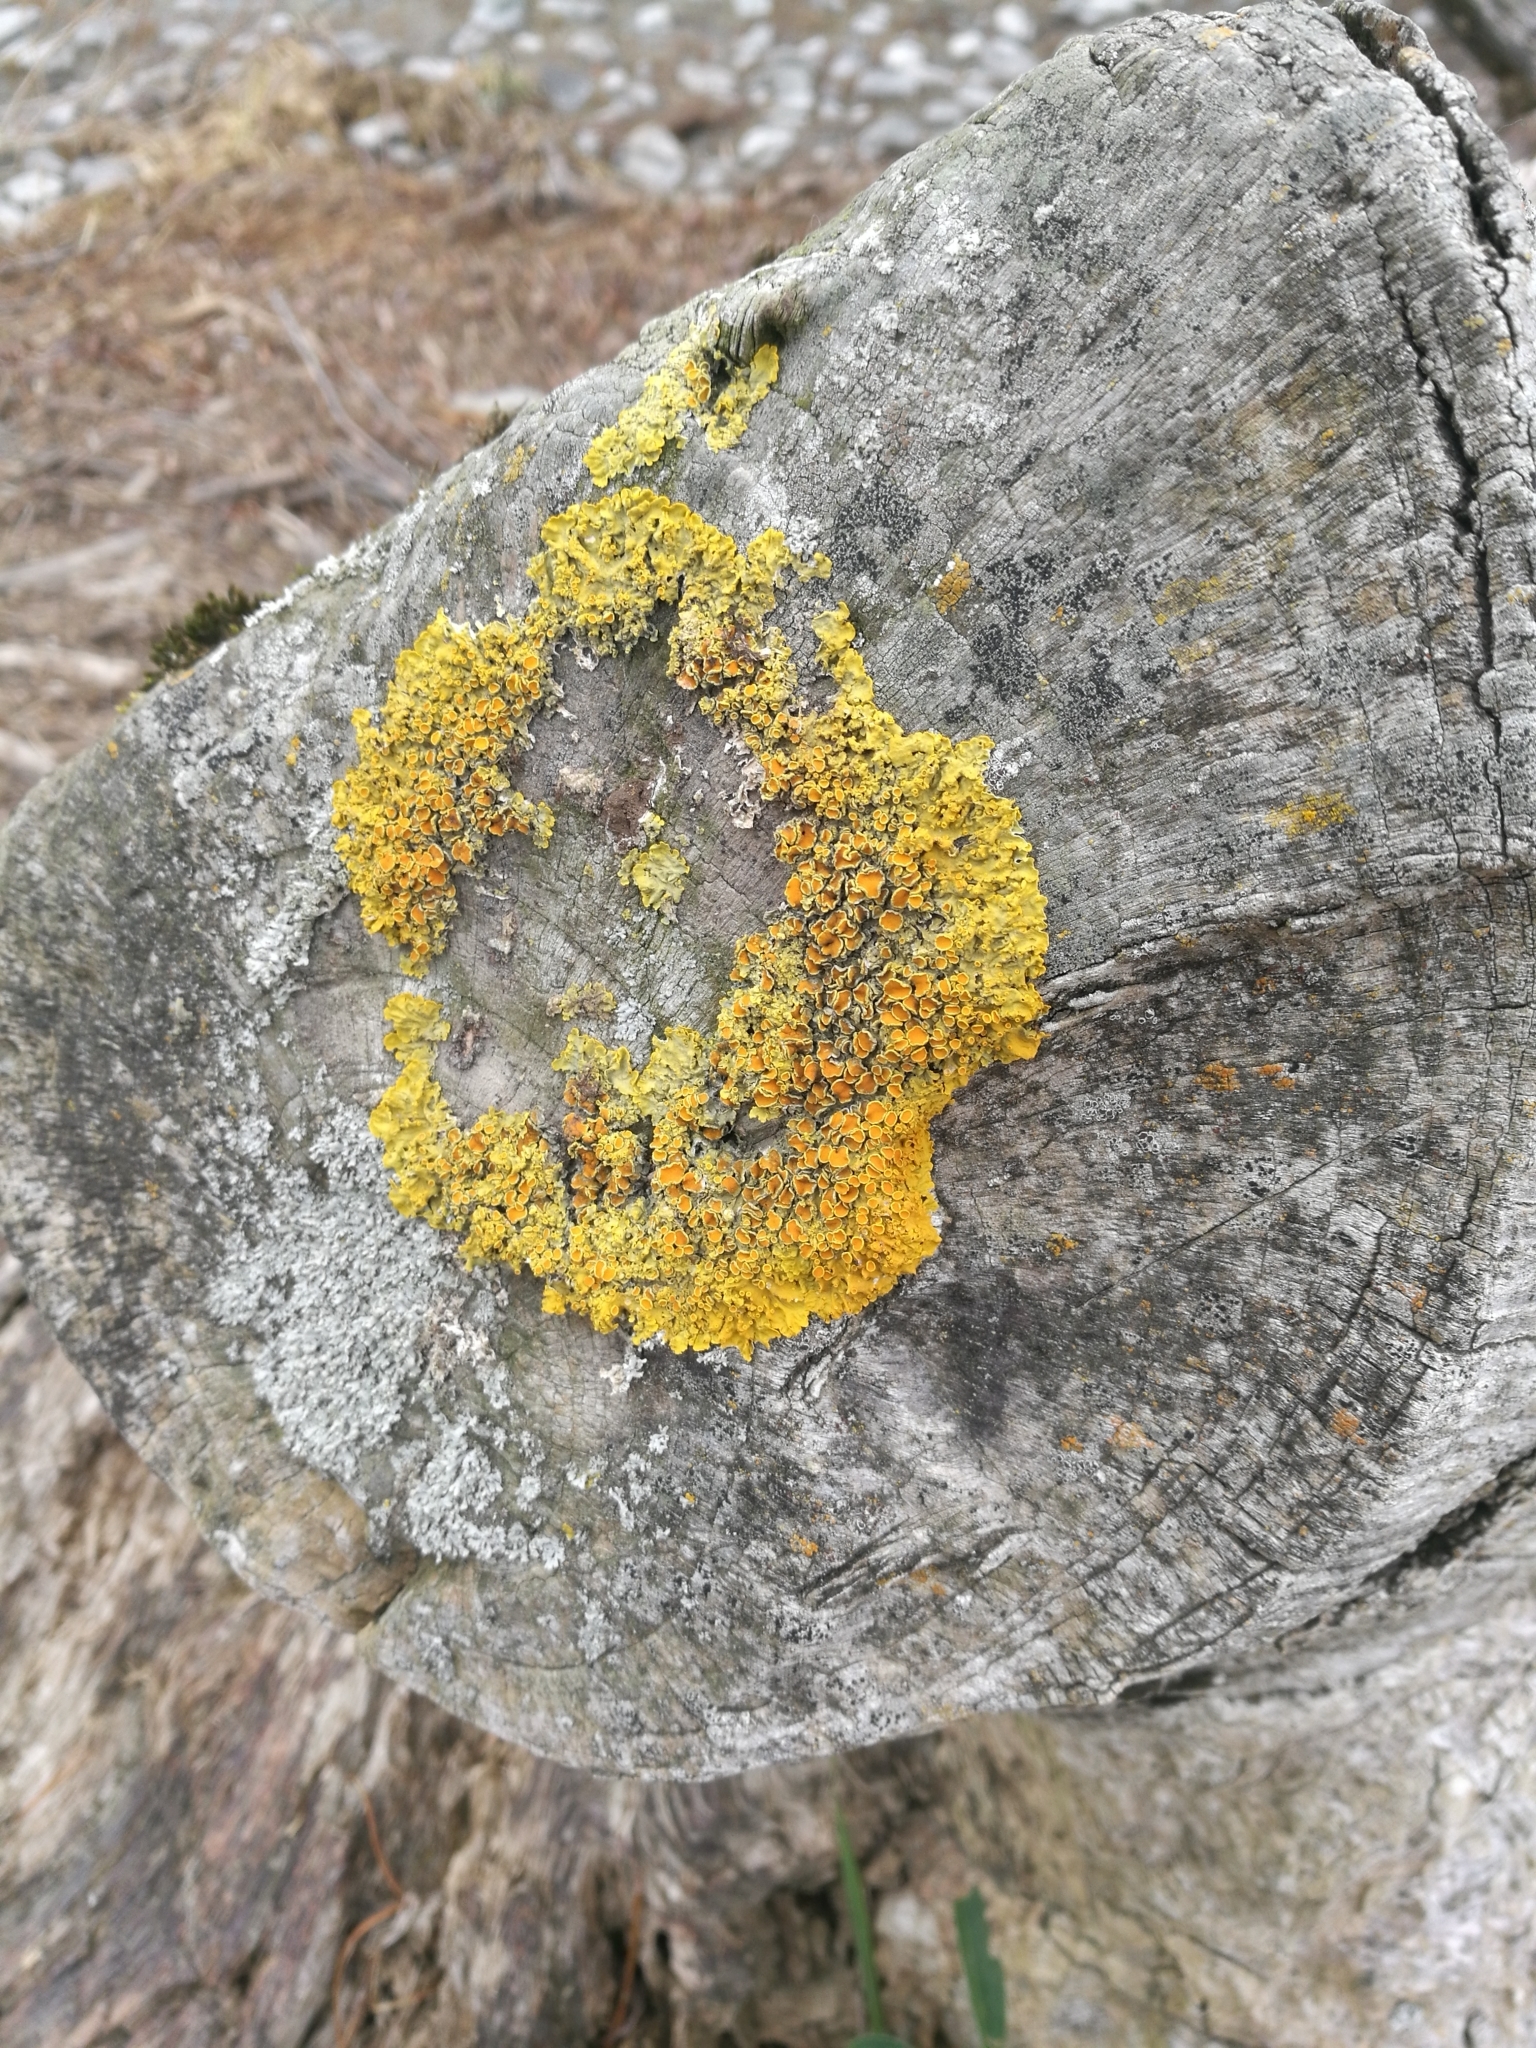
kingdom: Fungi
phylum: Ascomycota
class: Lecanoromycetes
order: Teloschistales
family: Teloschistaceae
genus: Xanthoria
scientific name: Xanthoria parietina
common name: Common orange lichen
